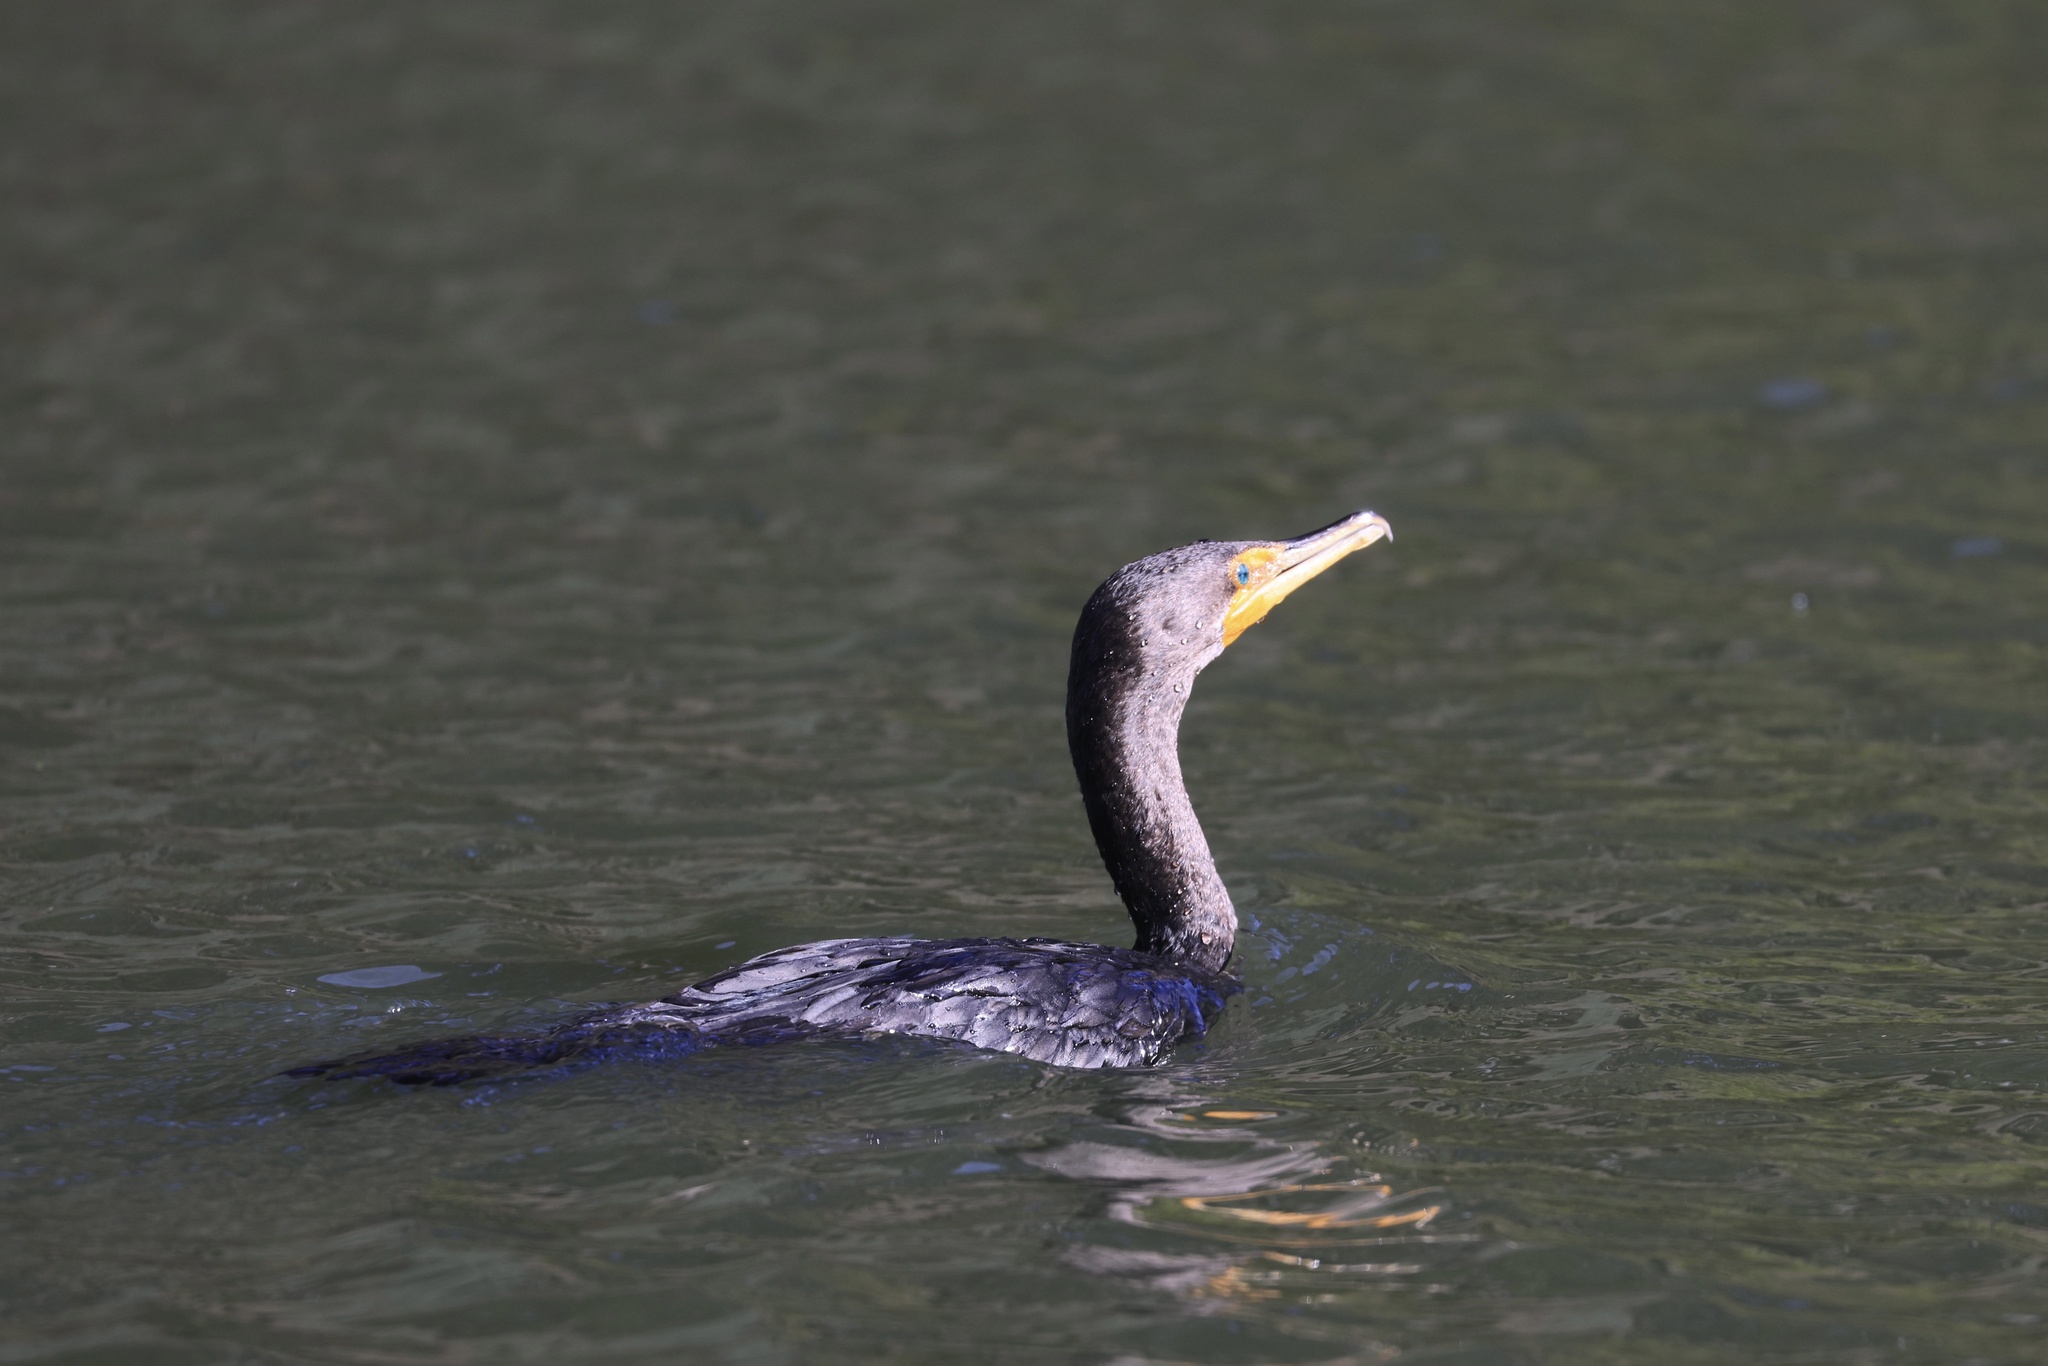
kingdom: Animalia
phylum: Chordata
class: Aves
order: Suliformes
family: Phalacrocoracidae
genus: Phalacrocorax
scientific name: Phalacrocorax auritus
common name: Double-crested cormorant
